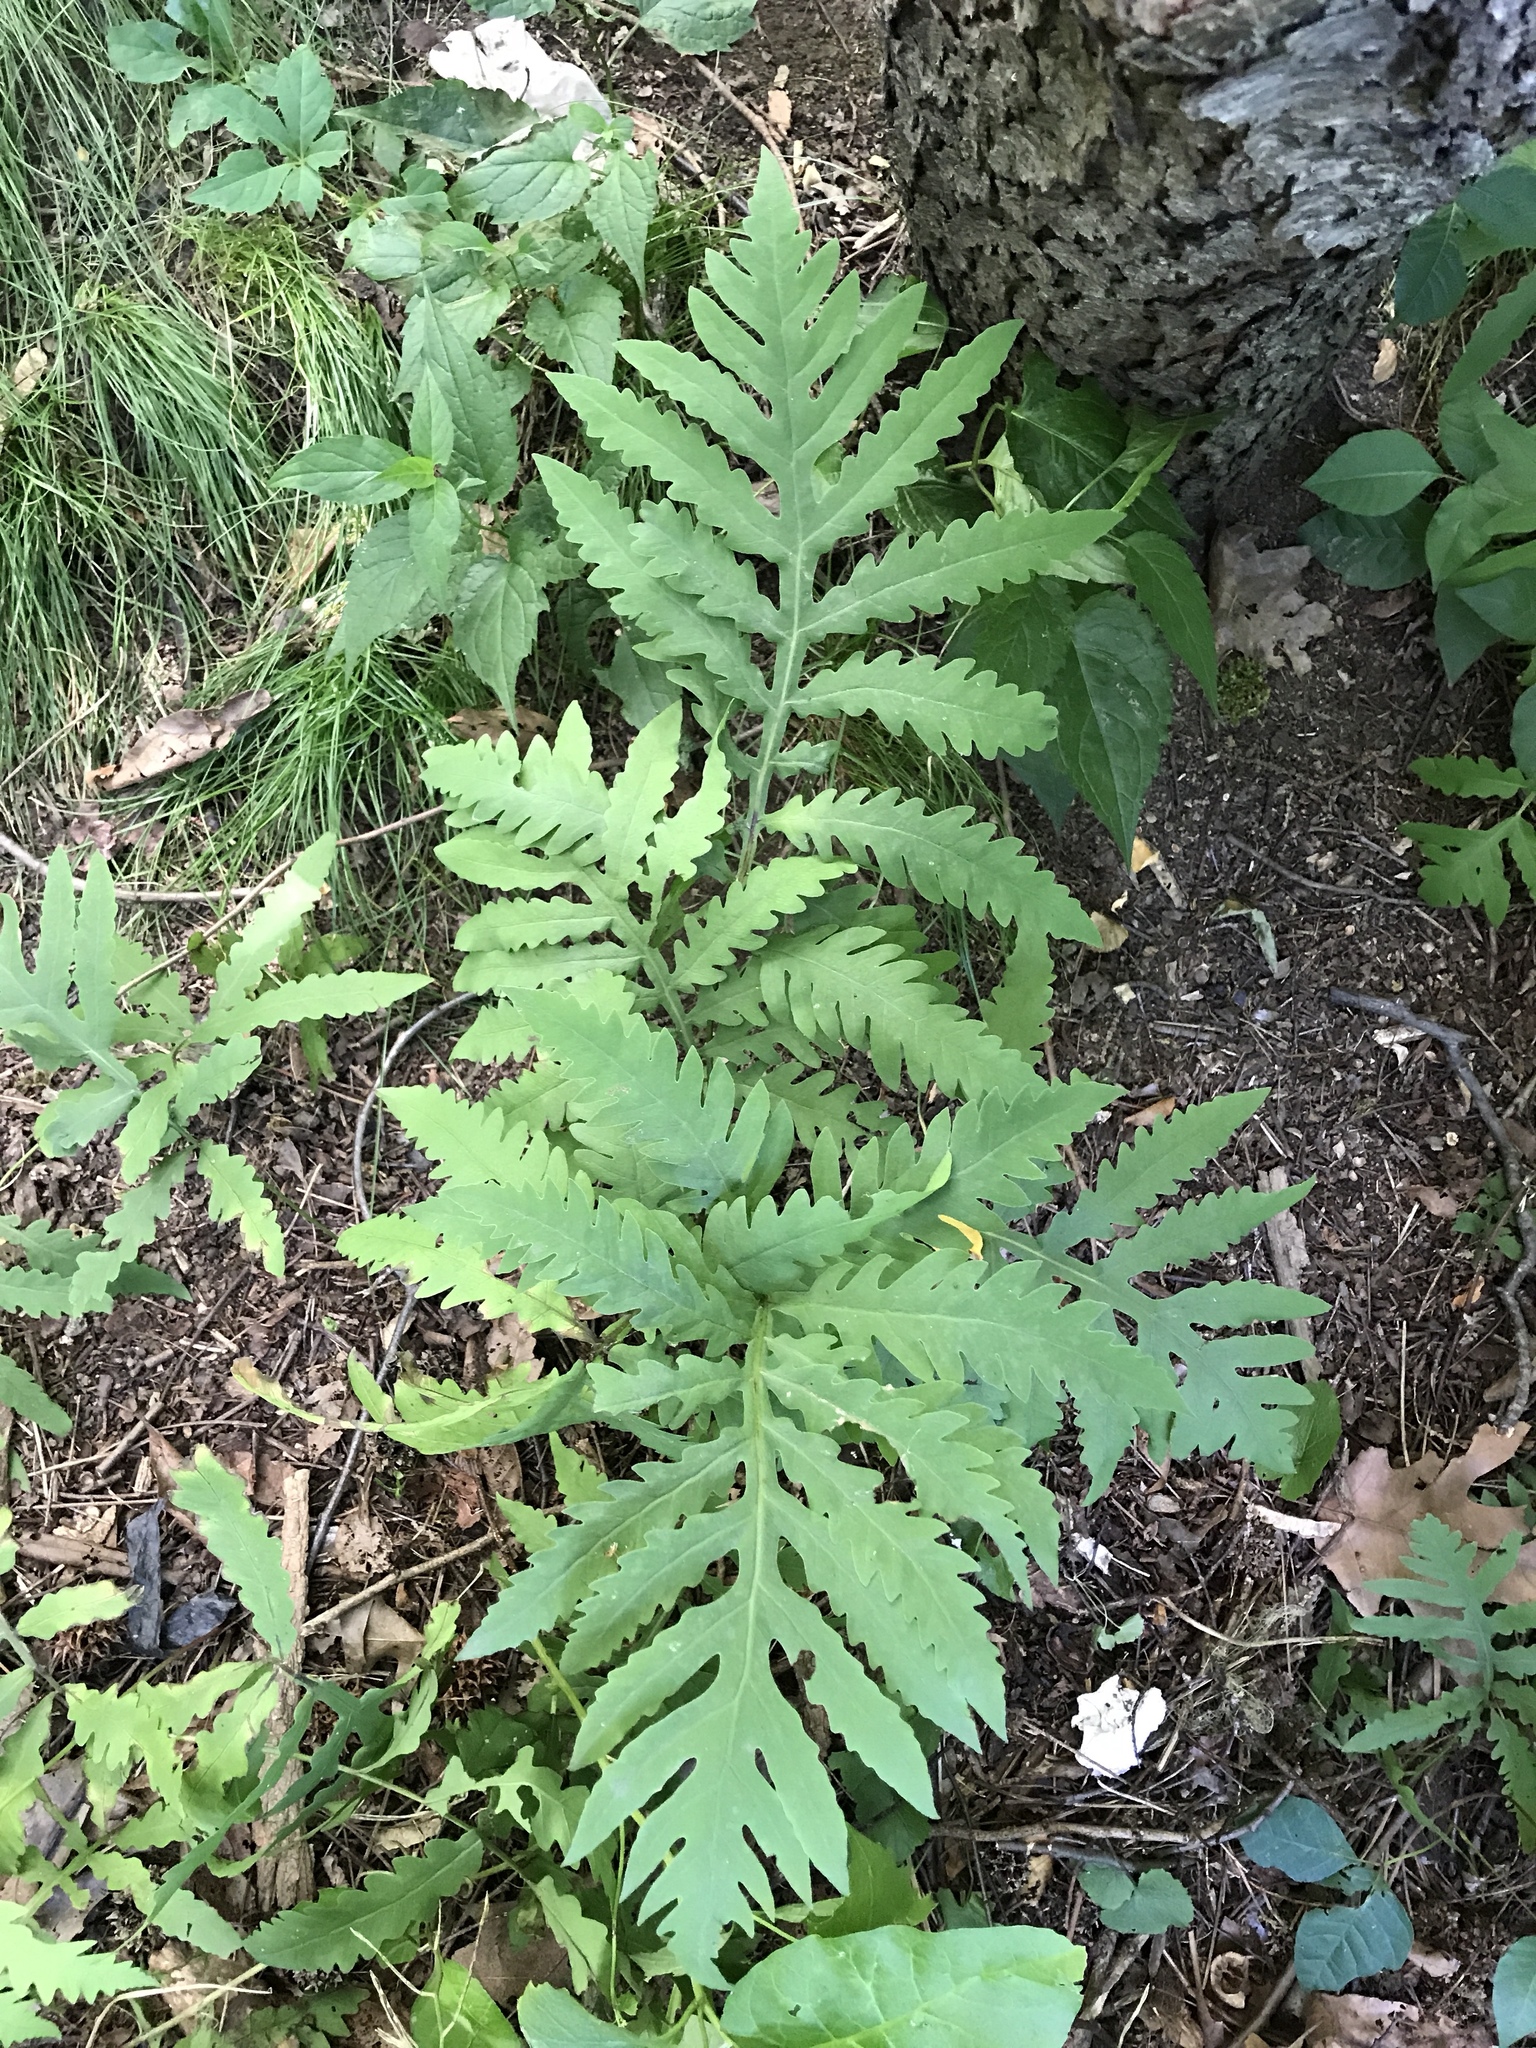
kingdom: Plantae
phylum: Tracheophyta
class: Polypodiopsida
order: Polypodiales
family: Onocleaceae
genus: Onoclea
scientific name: Onoclea sensibilis
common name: Sensitive fern
